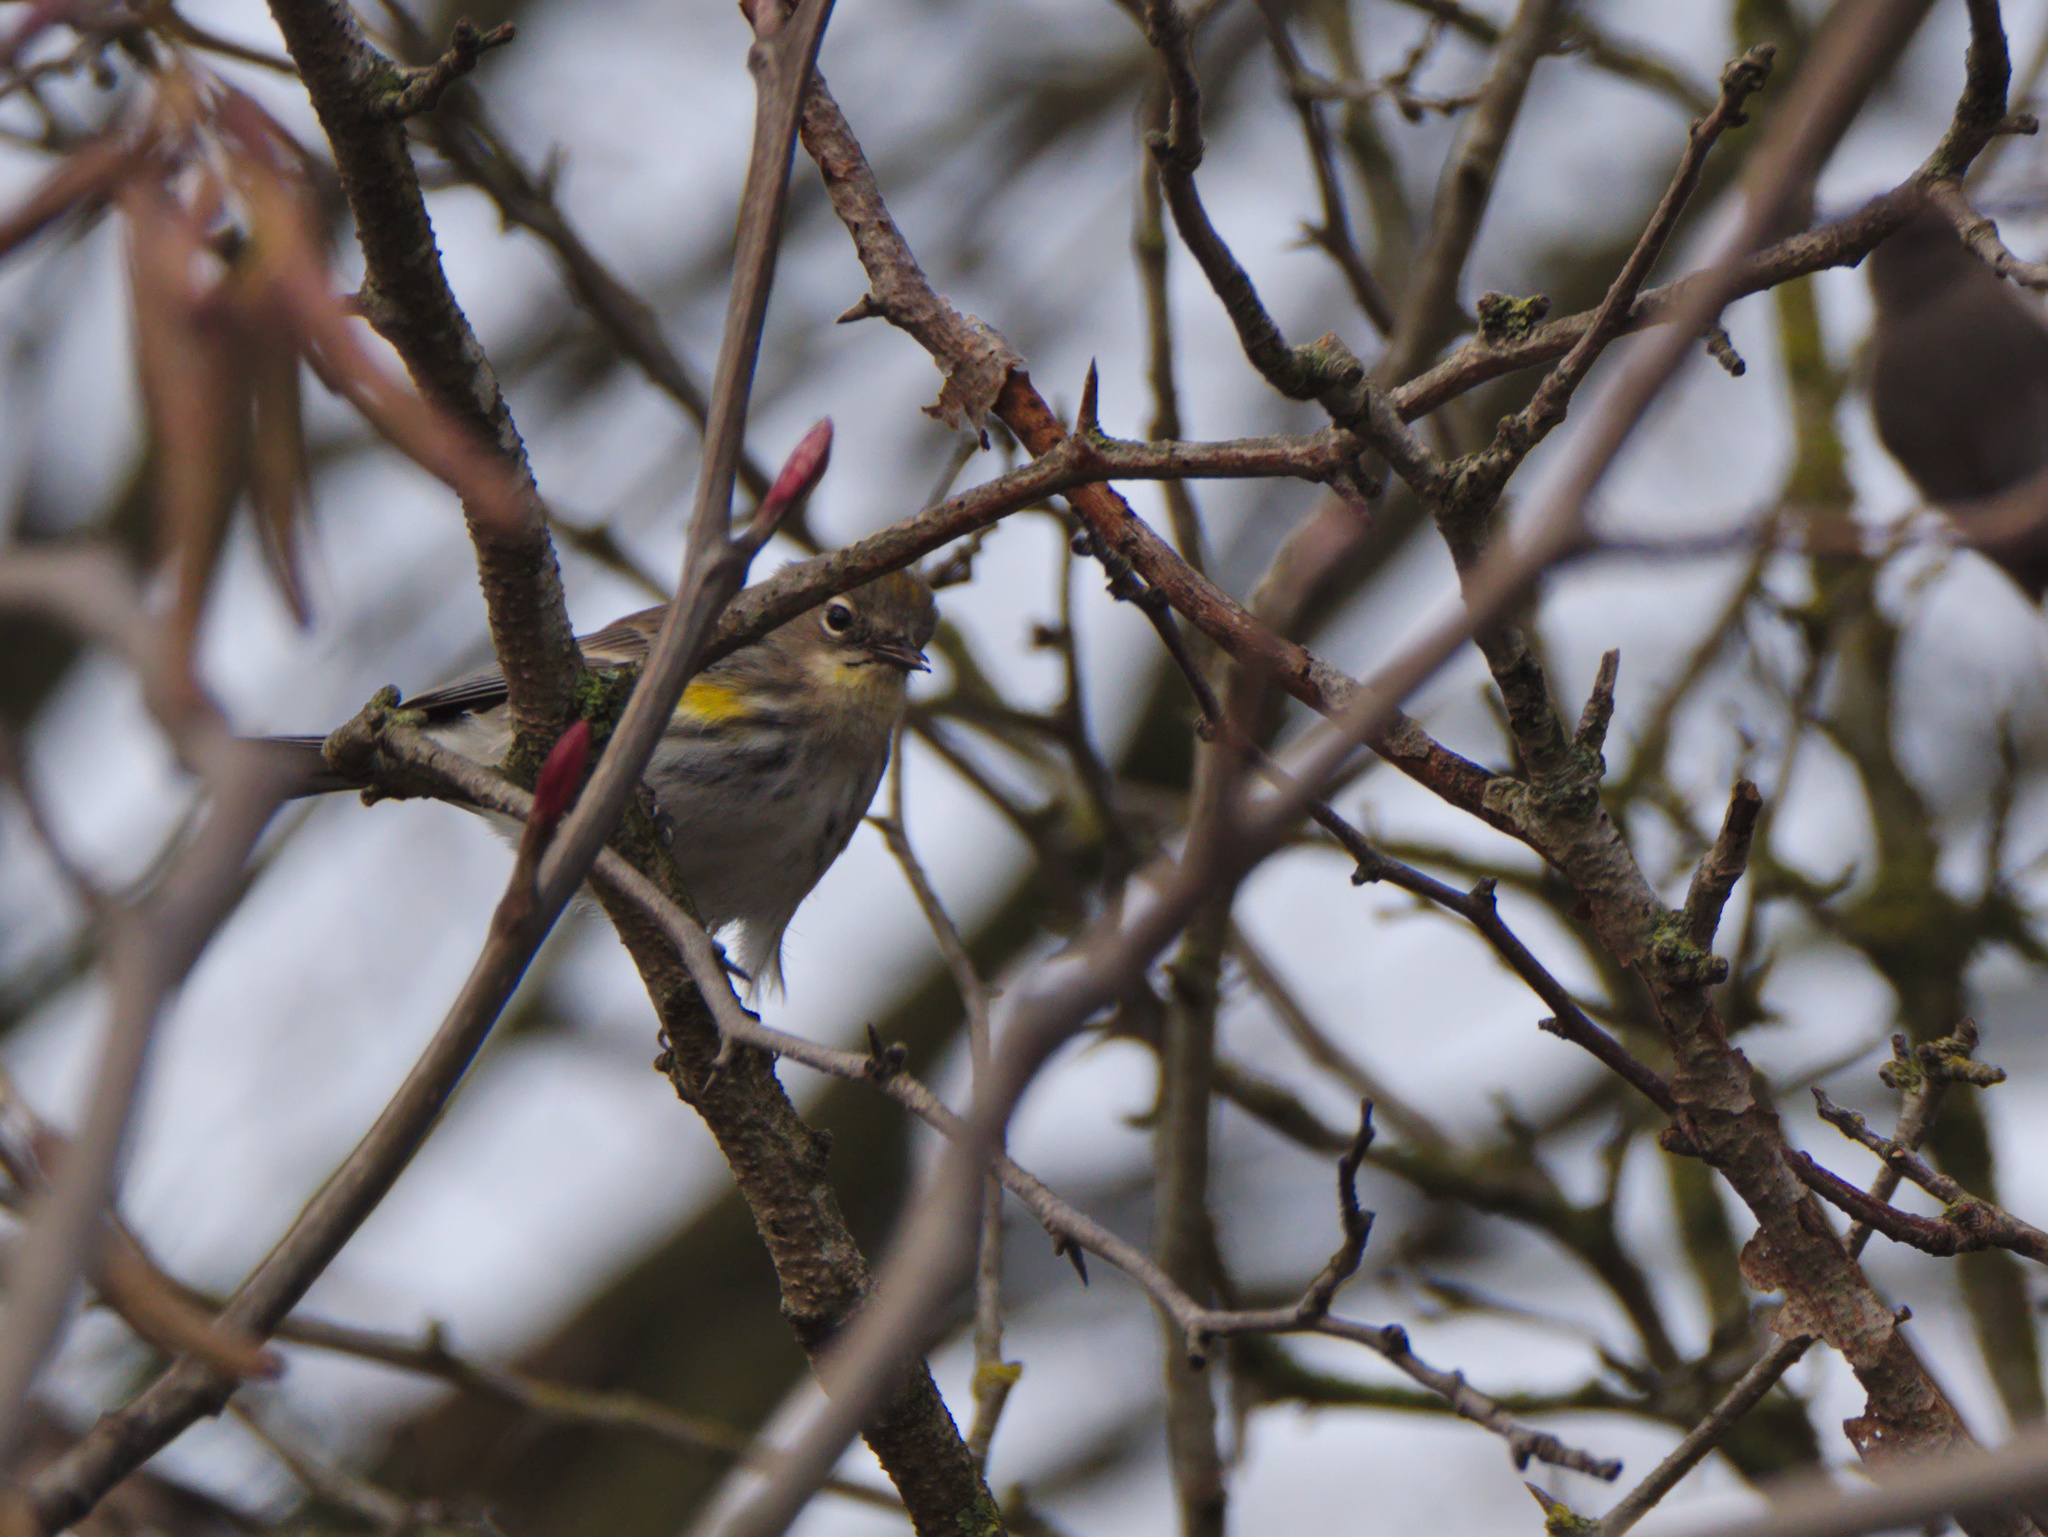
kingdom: Animalia
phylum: Chordata
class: Aves
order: Passeriformes
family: Parulidae
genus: Setophaga
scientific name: Setophaga auduboni
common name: Audubon's warbler
